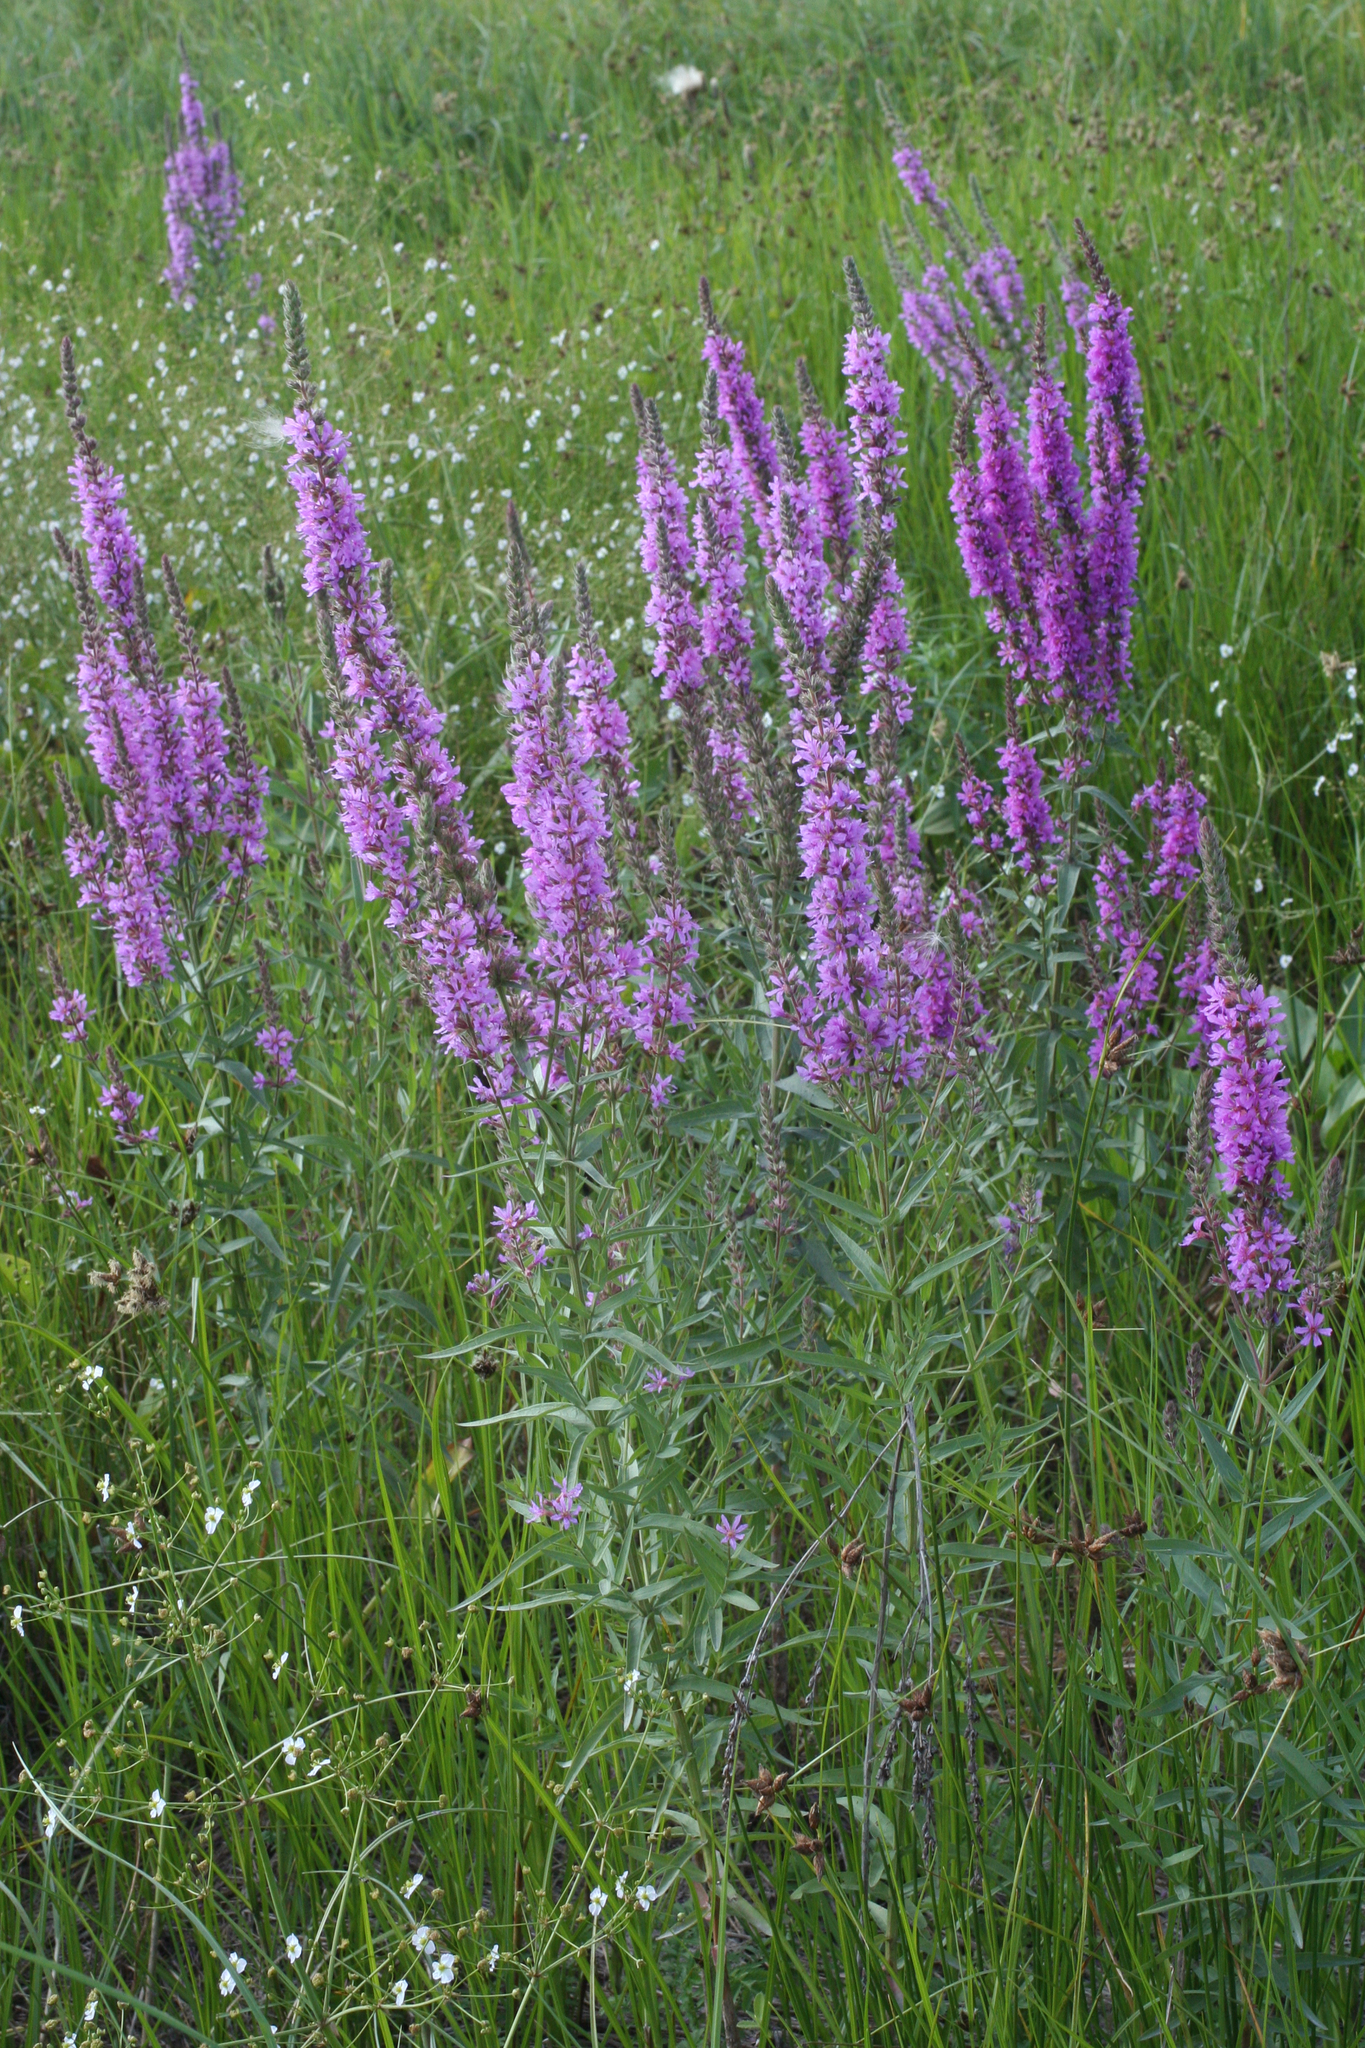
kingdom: Plantae
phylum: Tracheophyta
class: Magnoliopsida
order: Myrtales
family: Lythraceae
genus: Lythrum
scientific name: Lythrum salicaria
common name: Purple loosestrife
